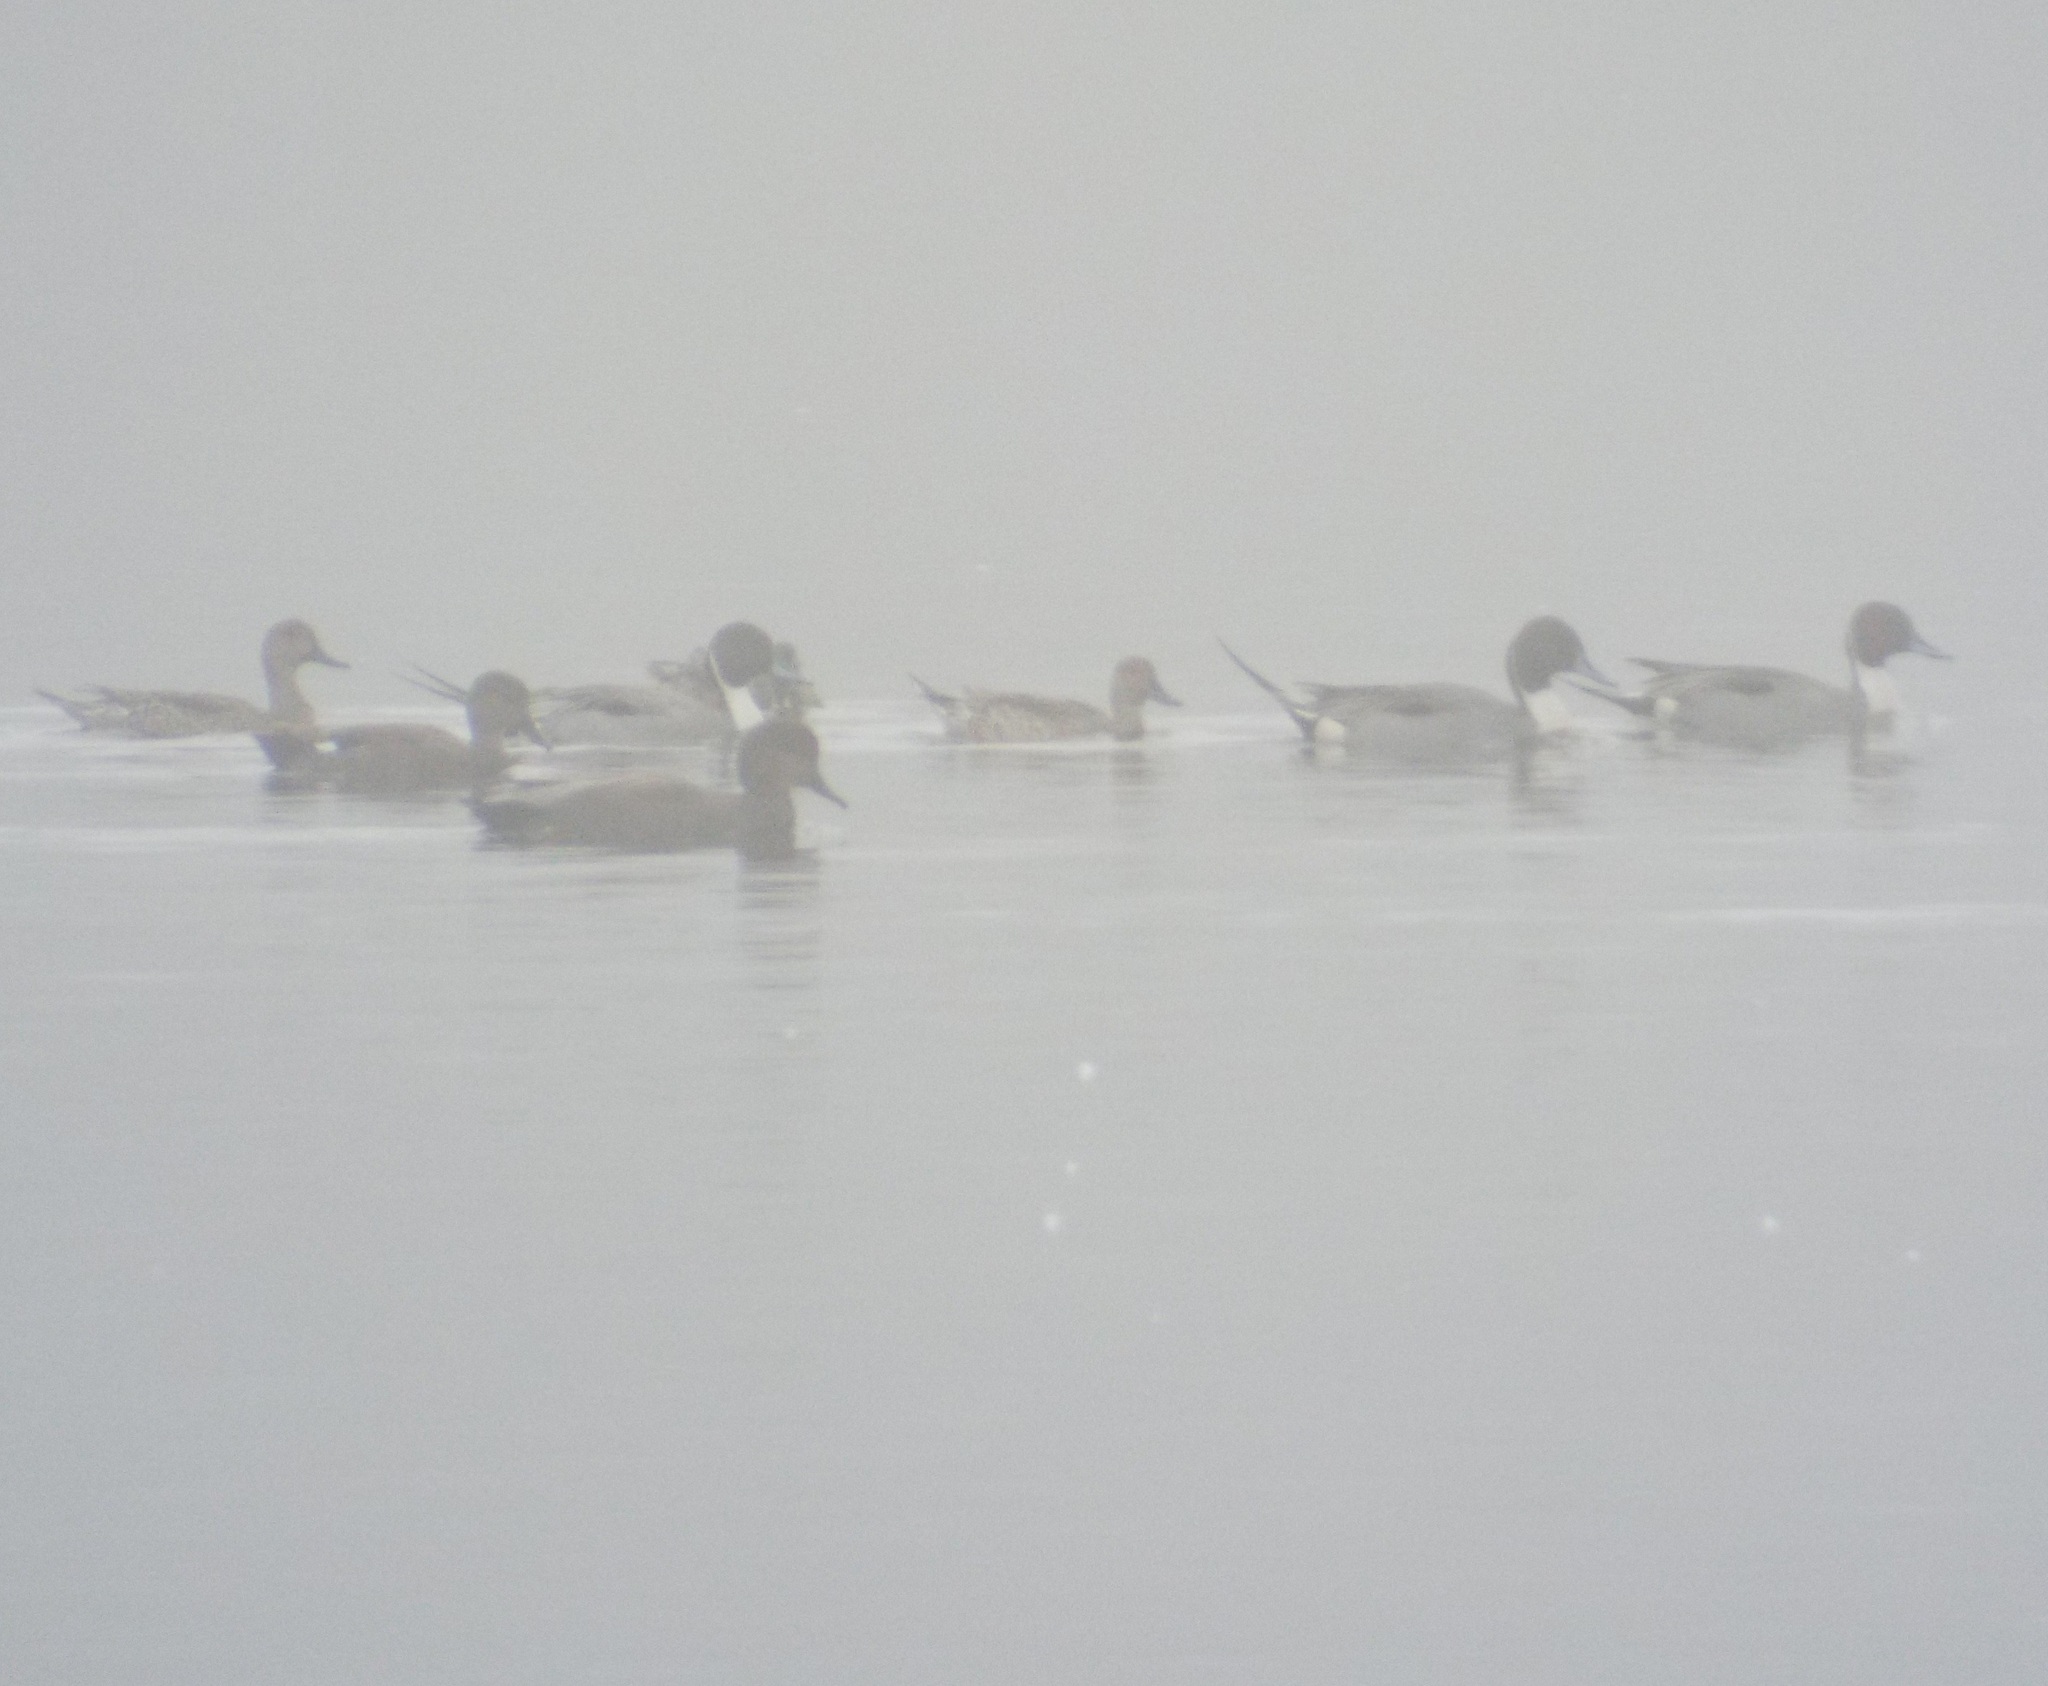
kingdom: Animalia
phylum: Chordata
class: Aves
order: Anseriformes
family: Anatidae
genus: Anas
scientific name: Anas acuta
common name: Northern pintail
